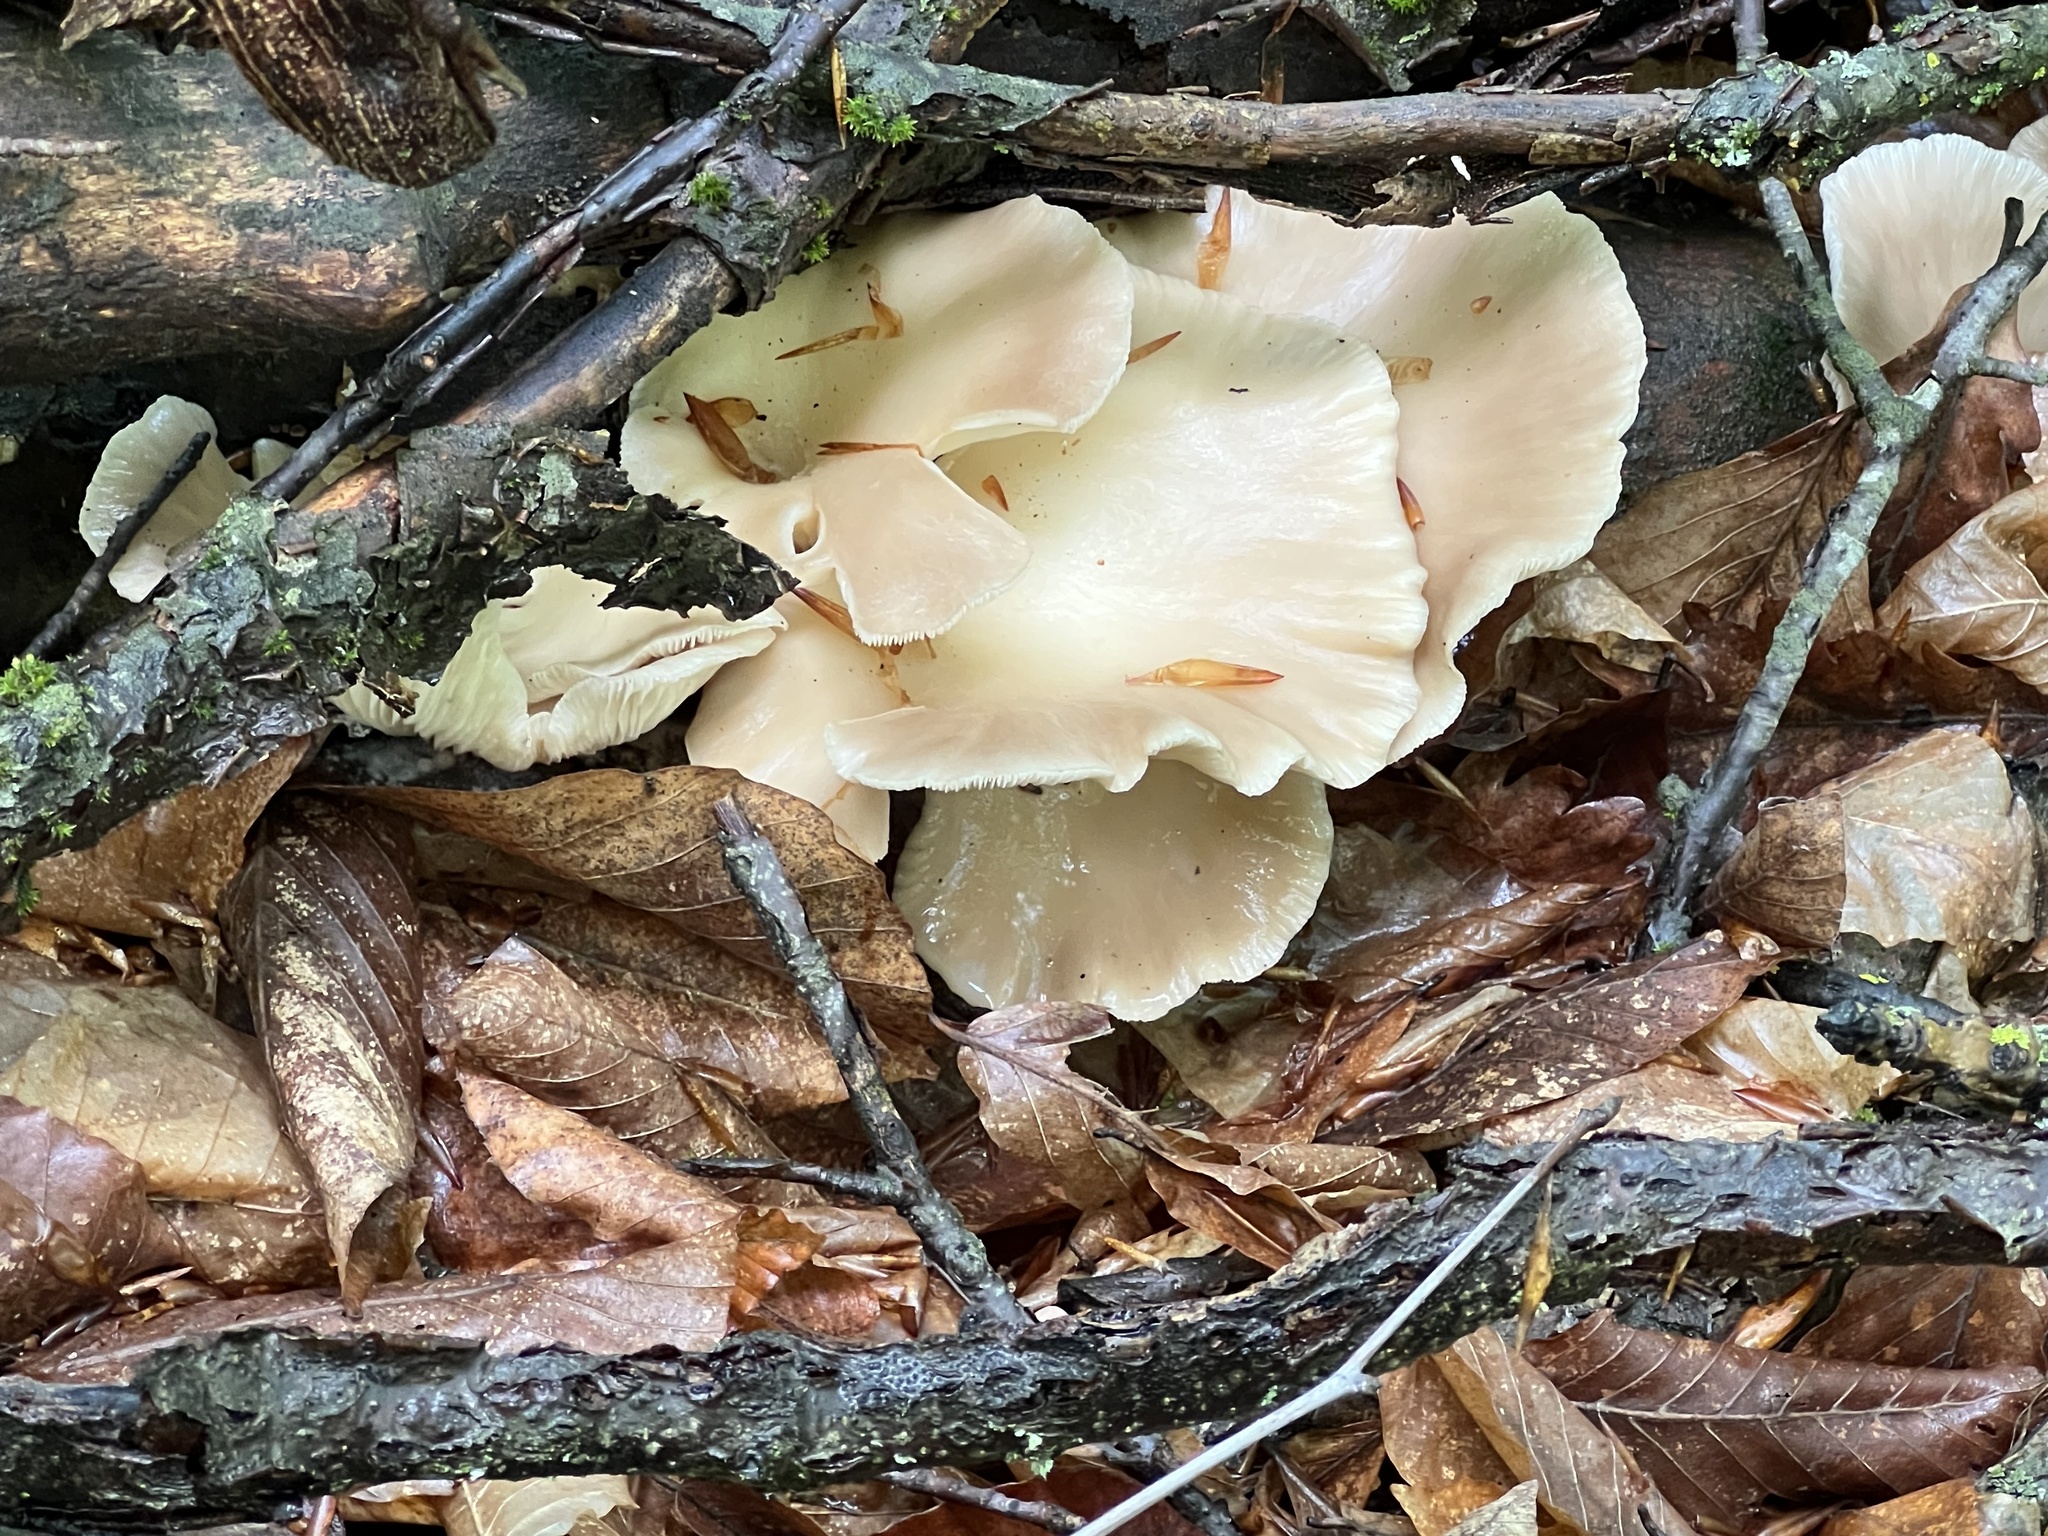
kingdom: Fungi
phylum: Basidiomycota
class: Agaricomycetes
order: Agaricales
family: Pleurotaceae
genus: Pleurotus
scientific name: Pleurotus ostreatus
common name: Oyster mushroom
